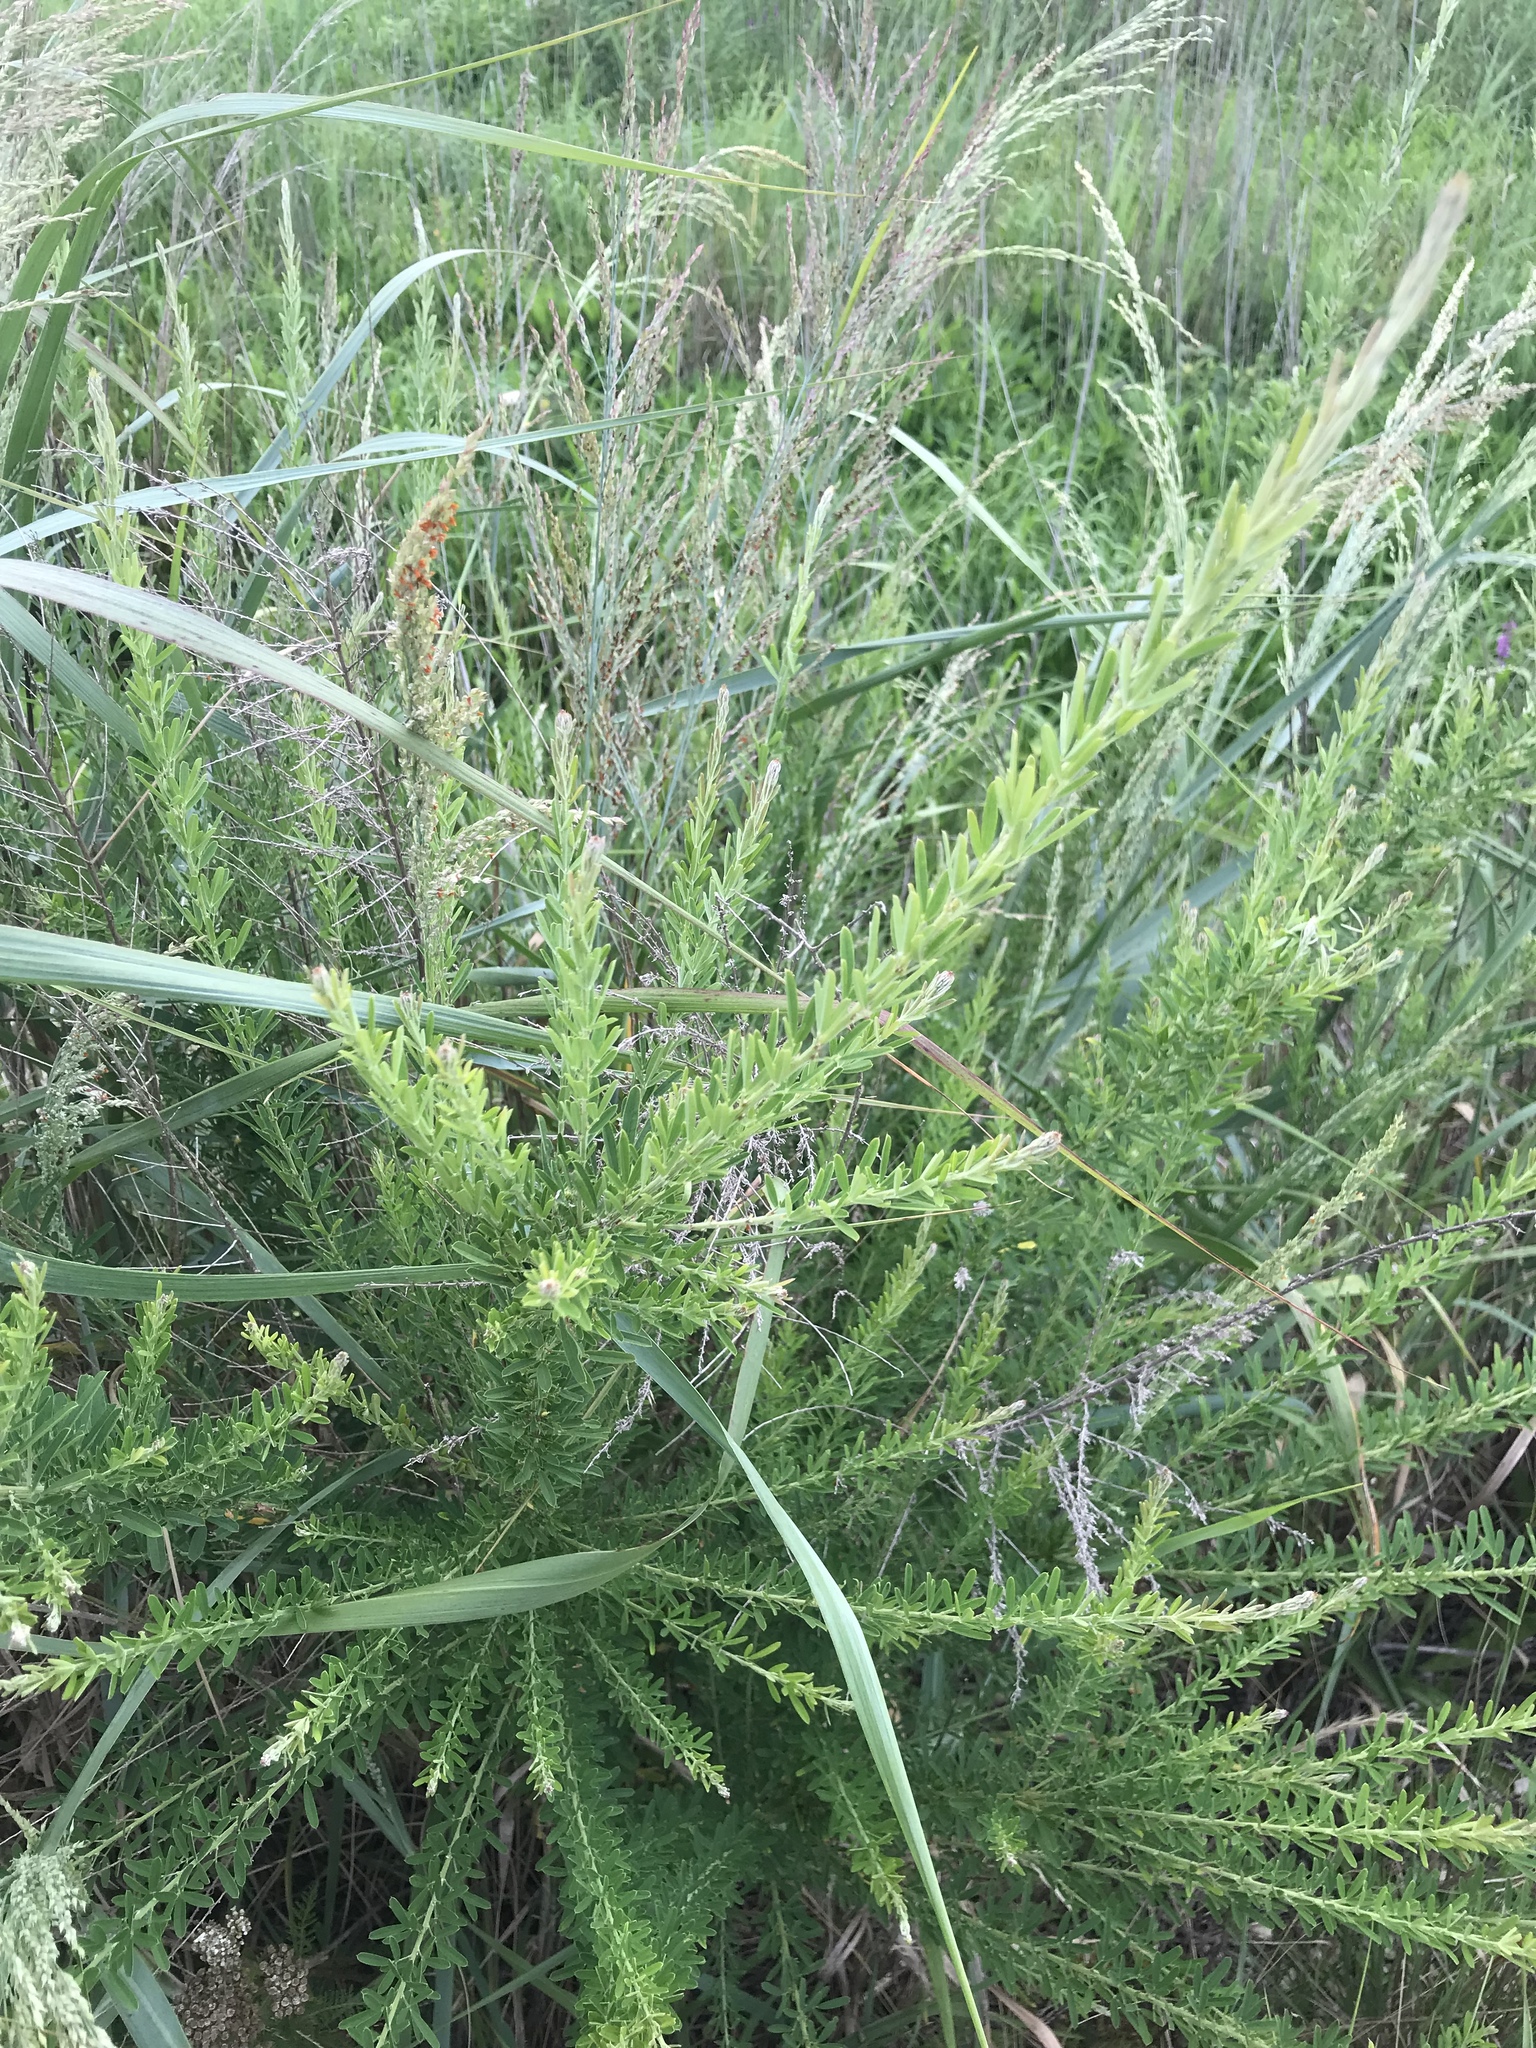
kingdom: Plantae
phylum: Tracheophyta
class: Magnoliopsida
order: Fabales
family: Fabaceae
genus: Lespedeza
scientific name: Lespedeza cuneata
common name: Chinese bush-clover
